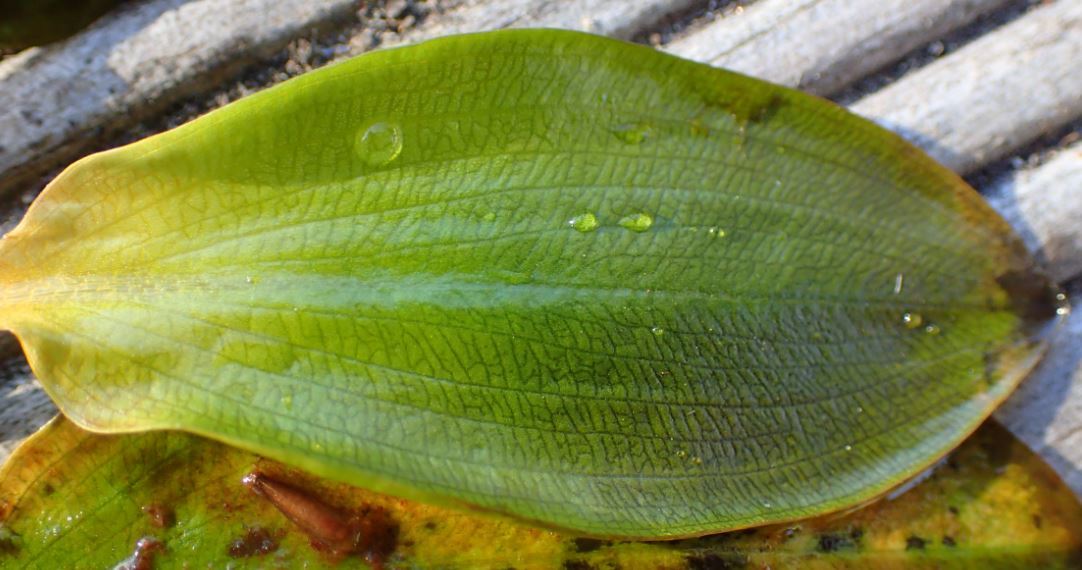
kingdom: Plantae
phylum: Tracheophyta
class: Liliopsida
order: Alismatales
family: Potamogetonaceae
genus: Potamogeton
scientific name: Potamogeton suboblongus
